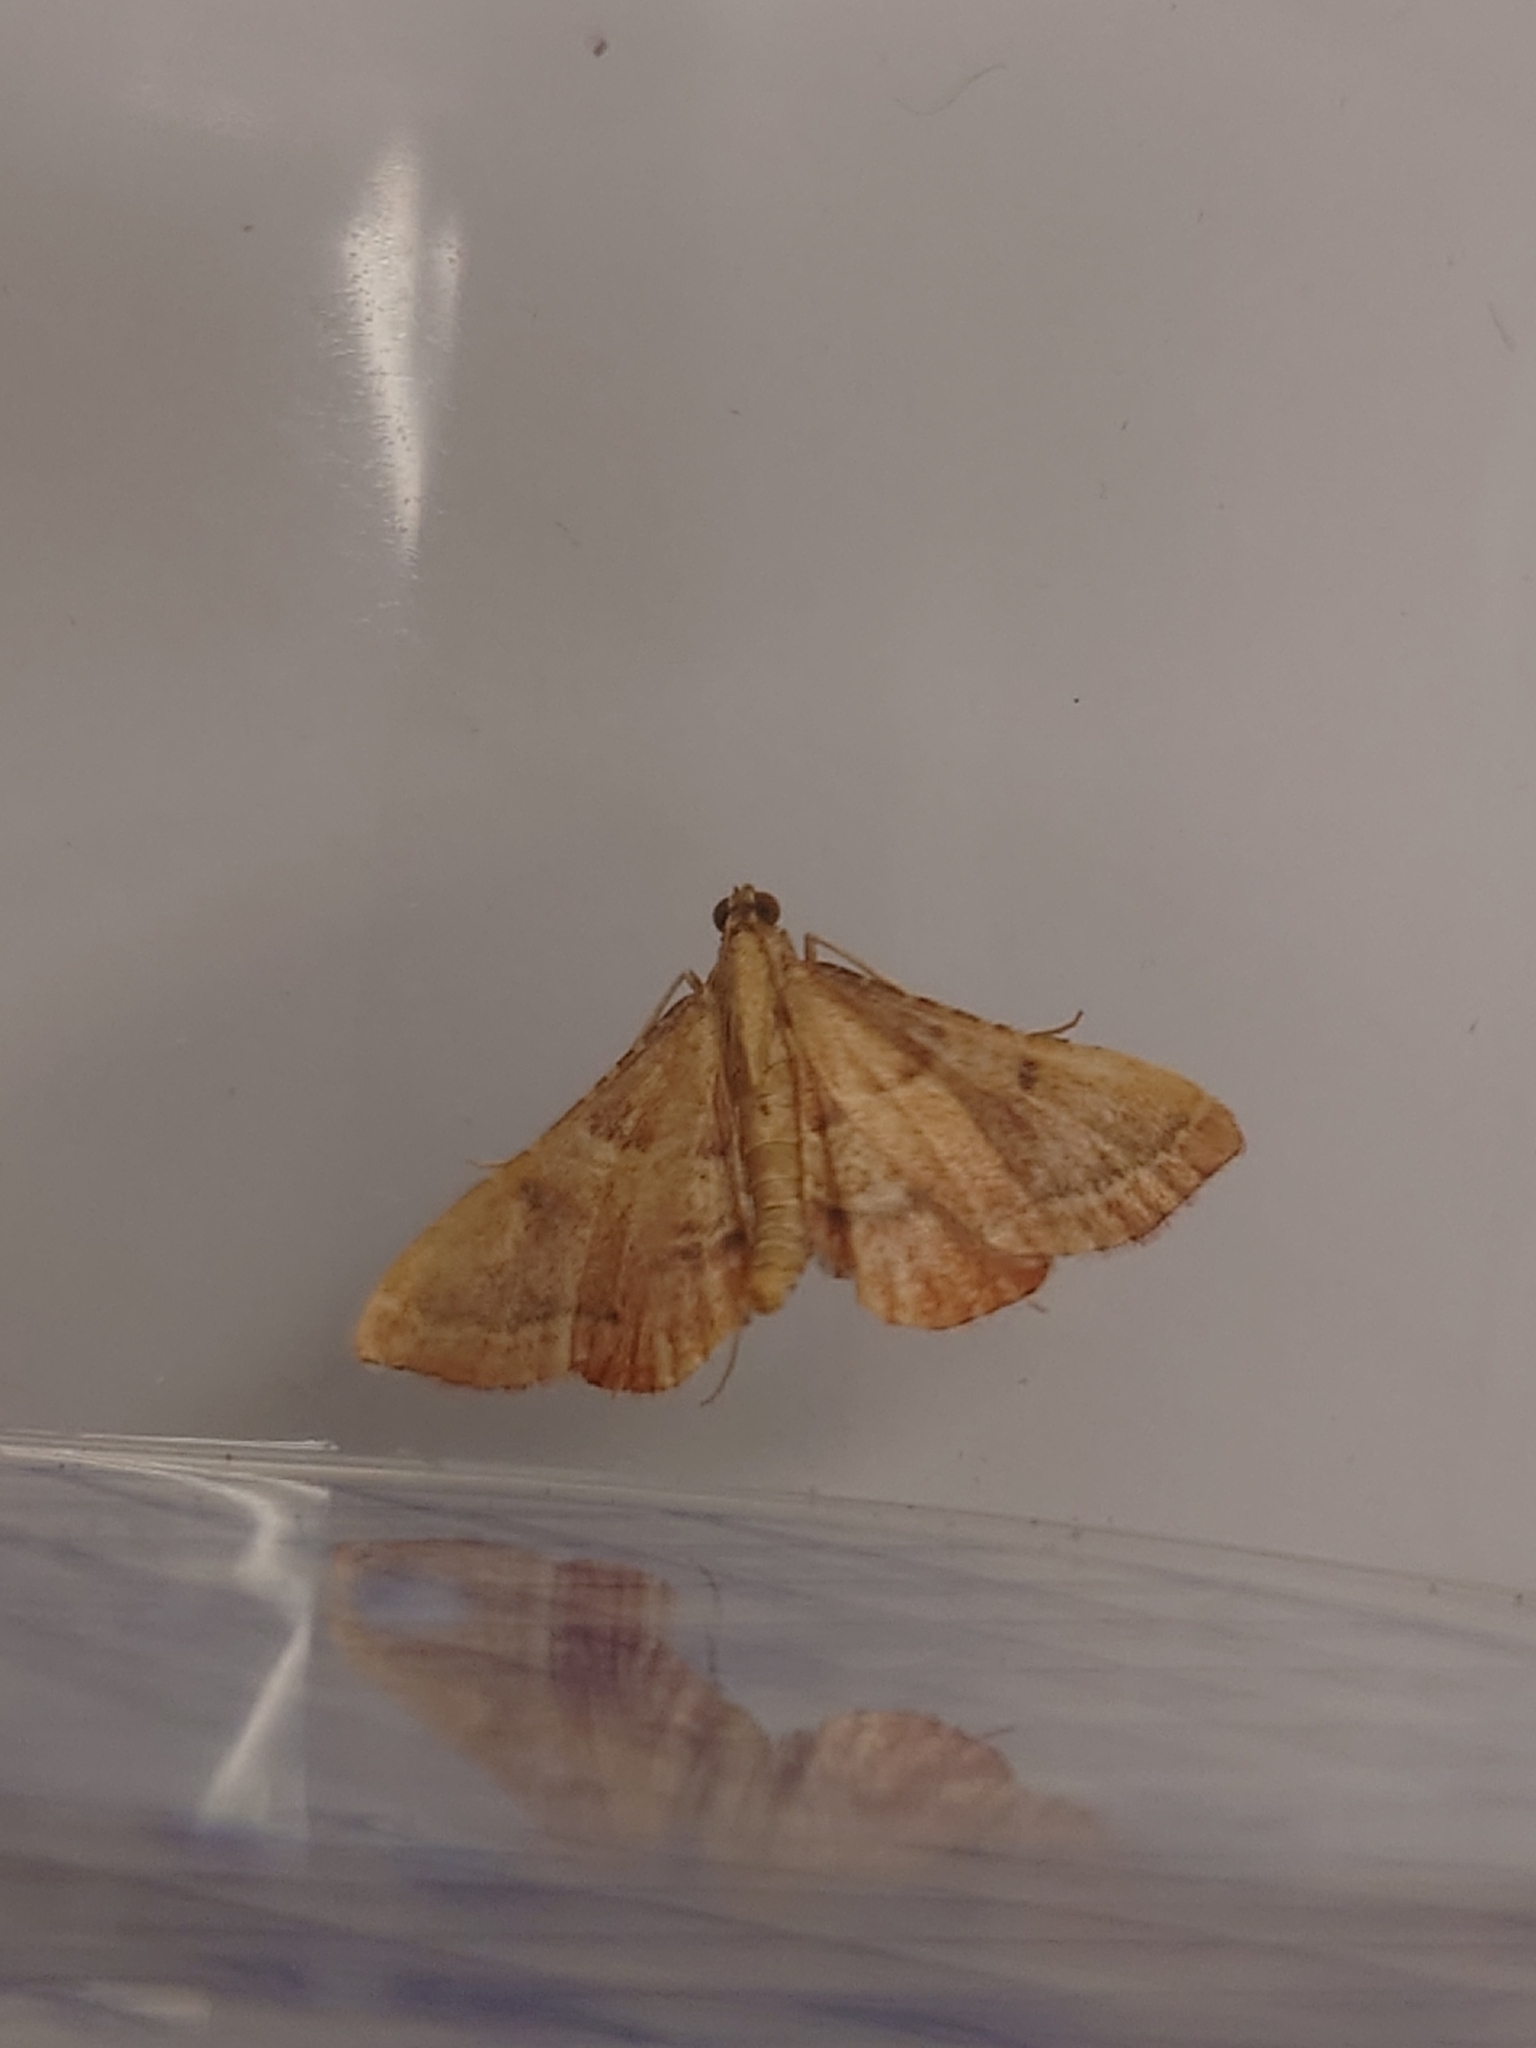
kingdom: Animalia
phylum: Arthropoda
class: Insecta
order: Lepidoptera
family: Pyralidae
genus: Endotricha
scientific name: Endotricha flammealis
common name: Rosy tabby
